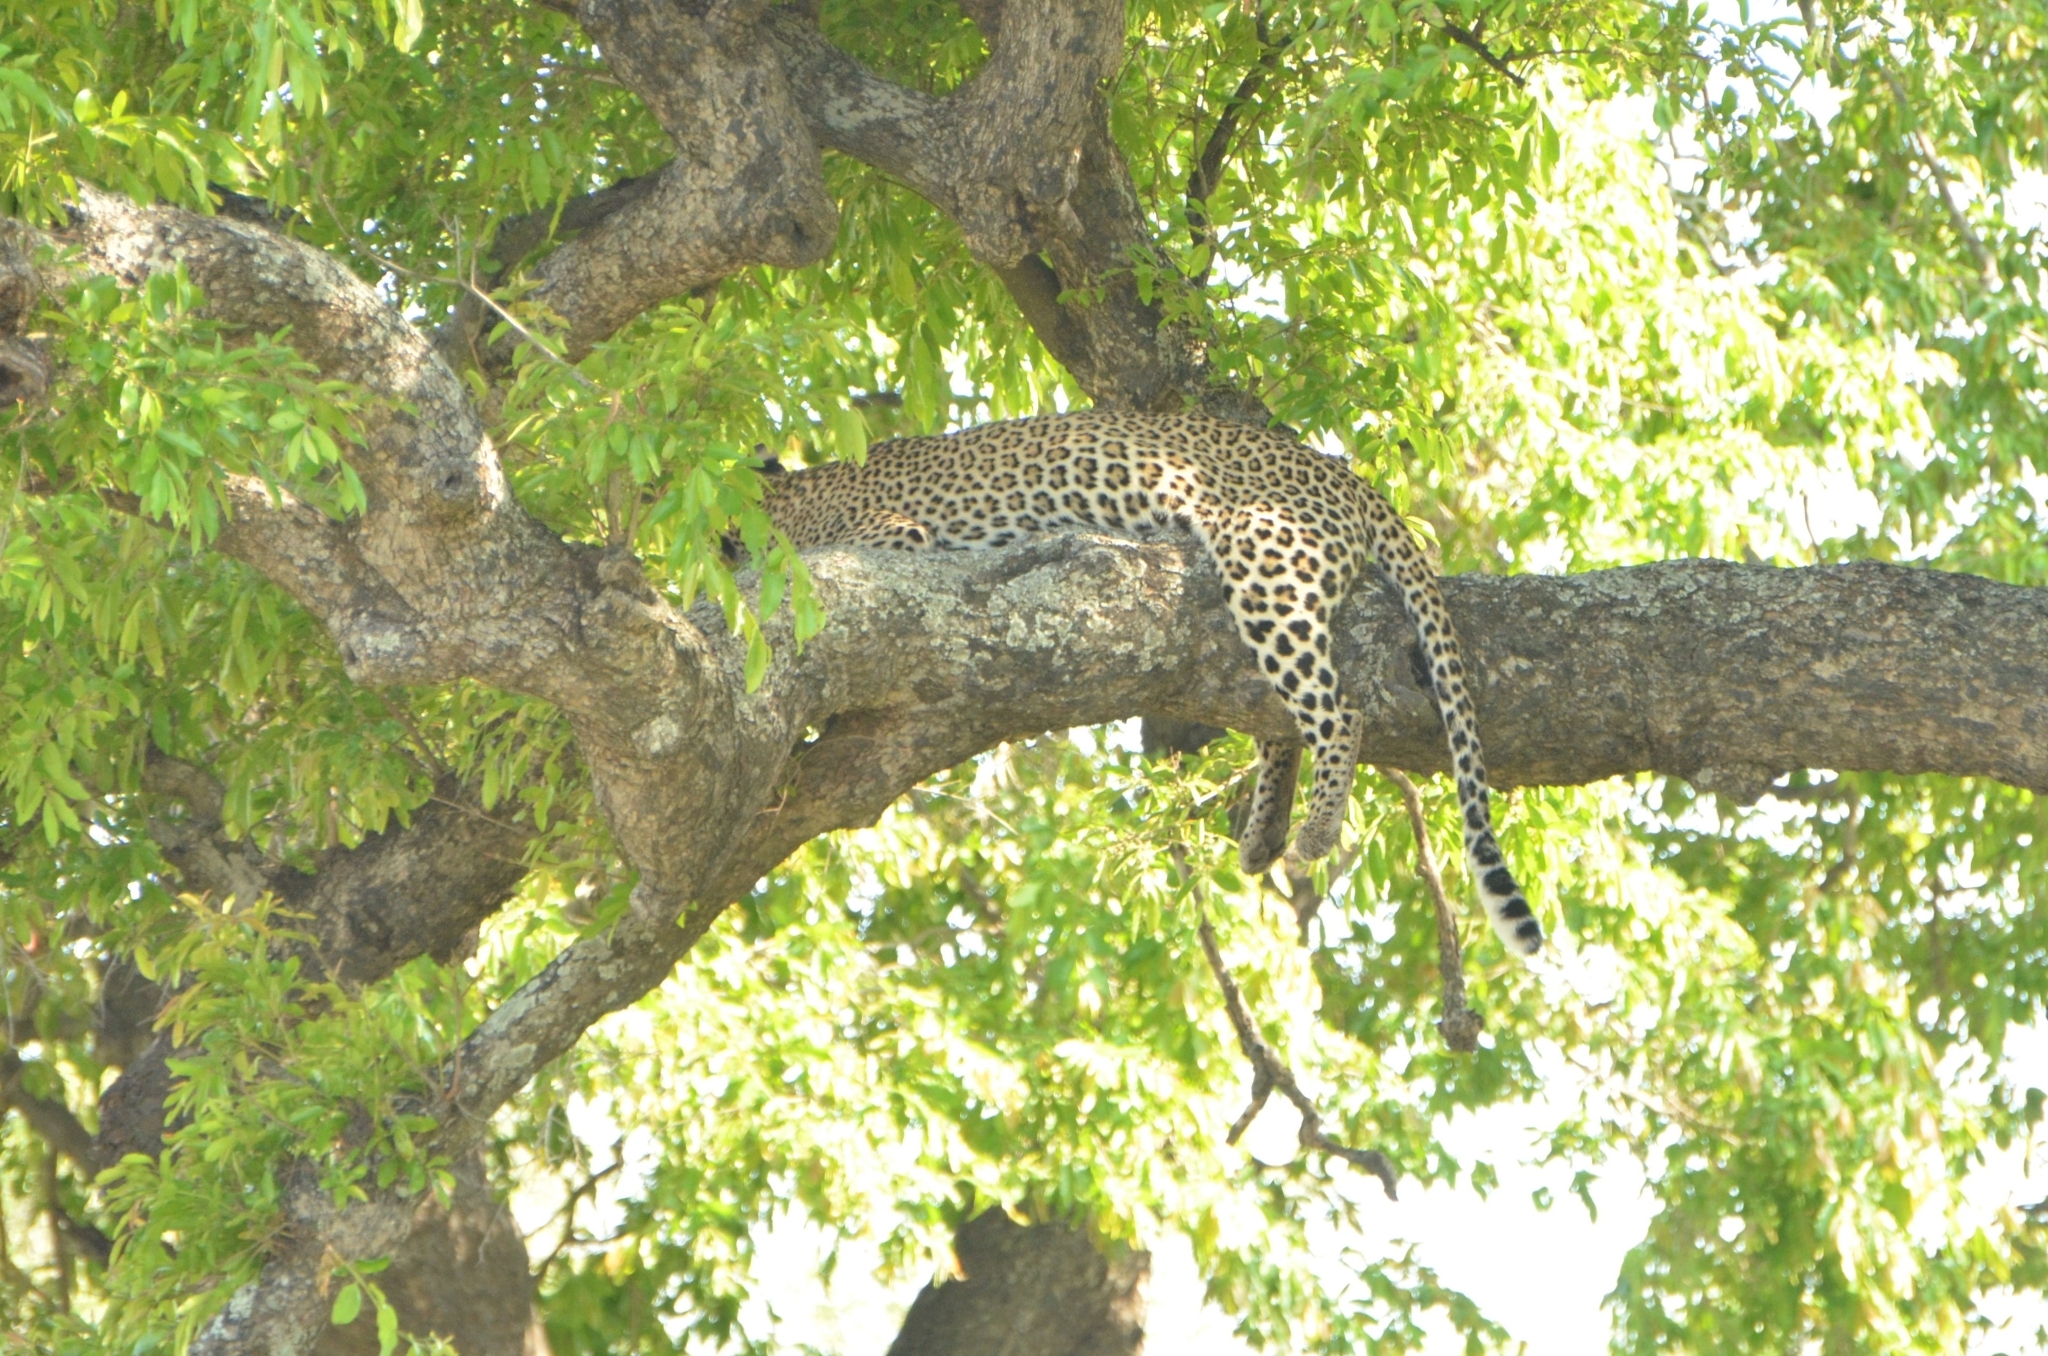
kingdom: Animalia
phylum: Chordata
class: Mammalia
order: Carnivora
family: Felidae
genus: Panthera
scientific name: Panthera pardus
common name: Leopard
